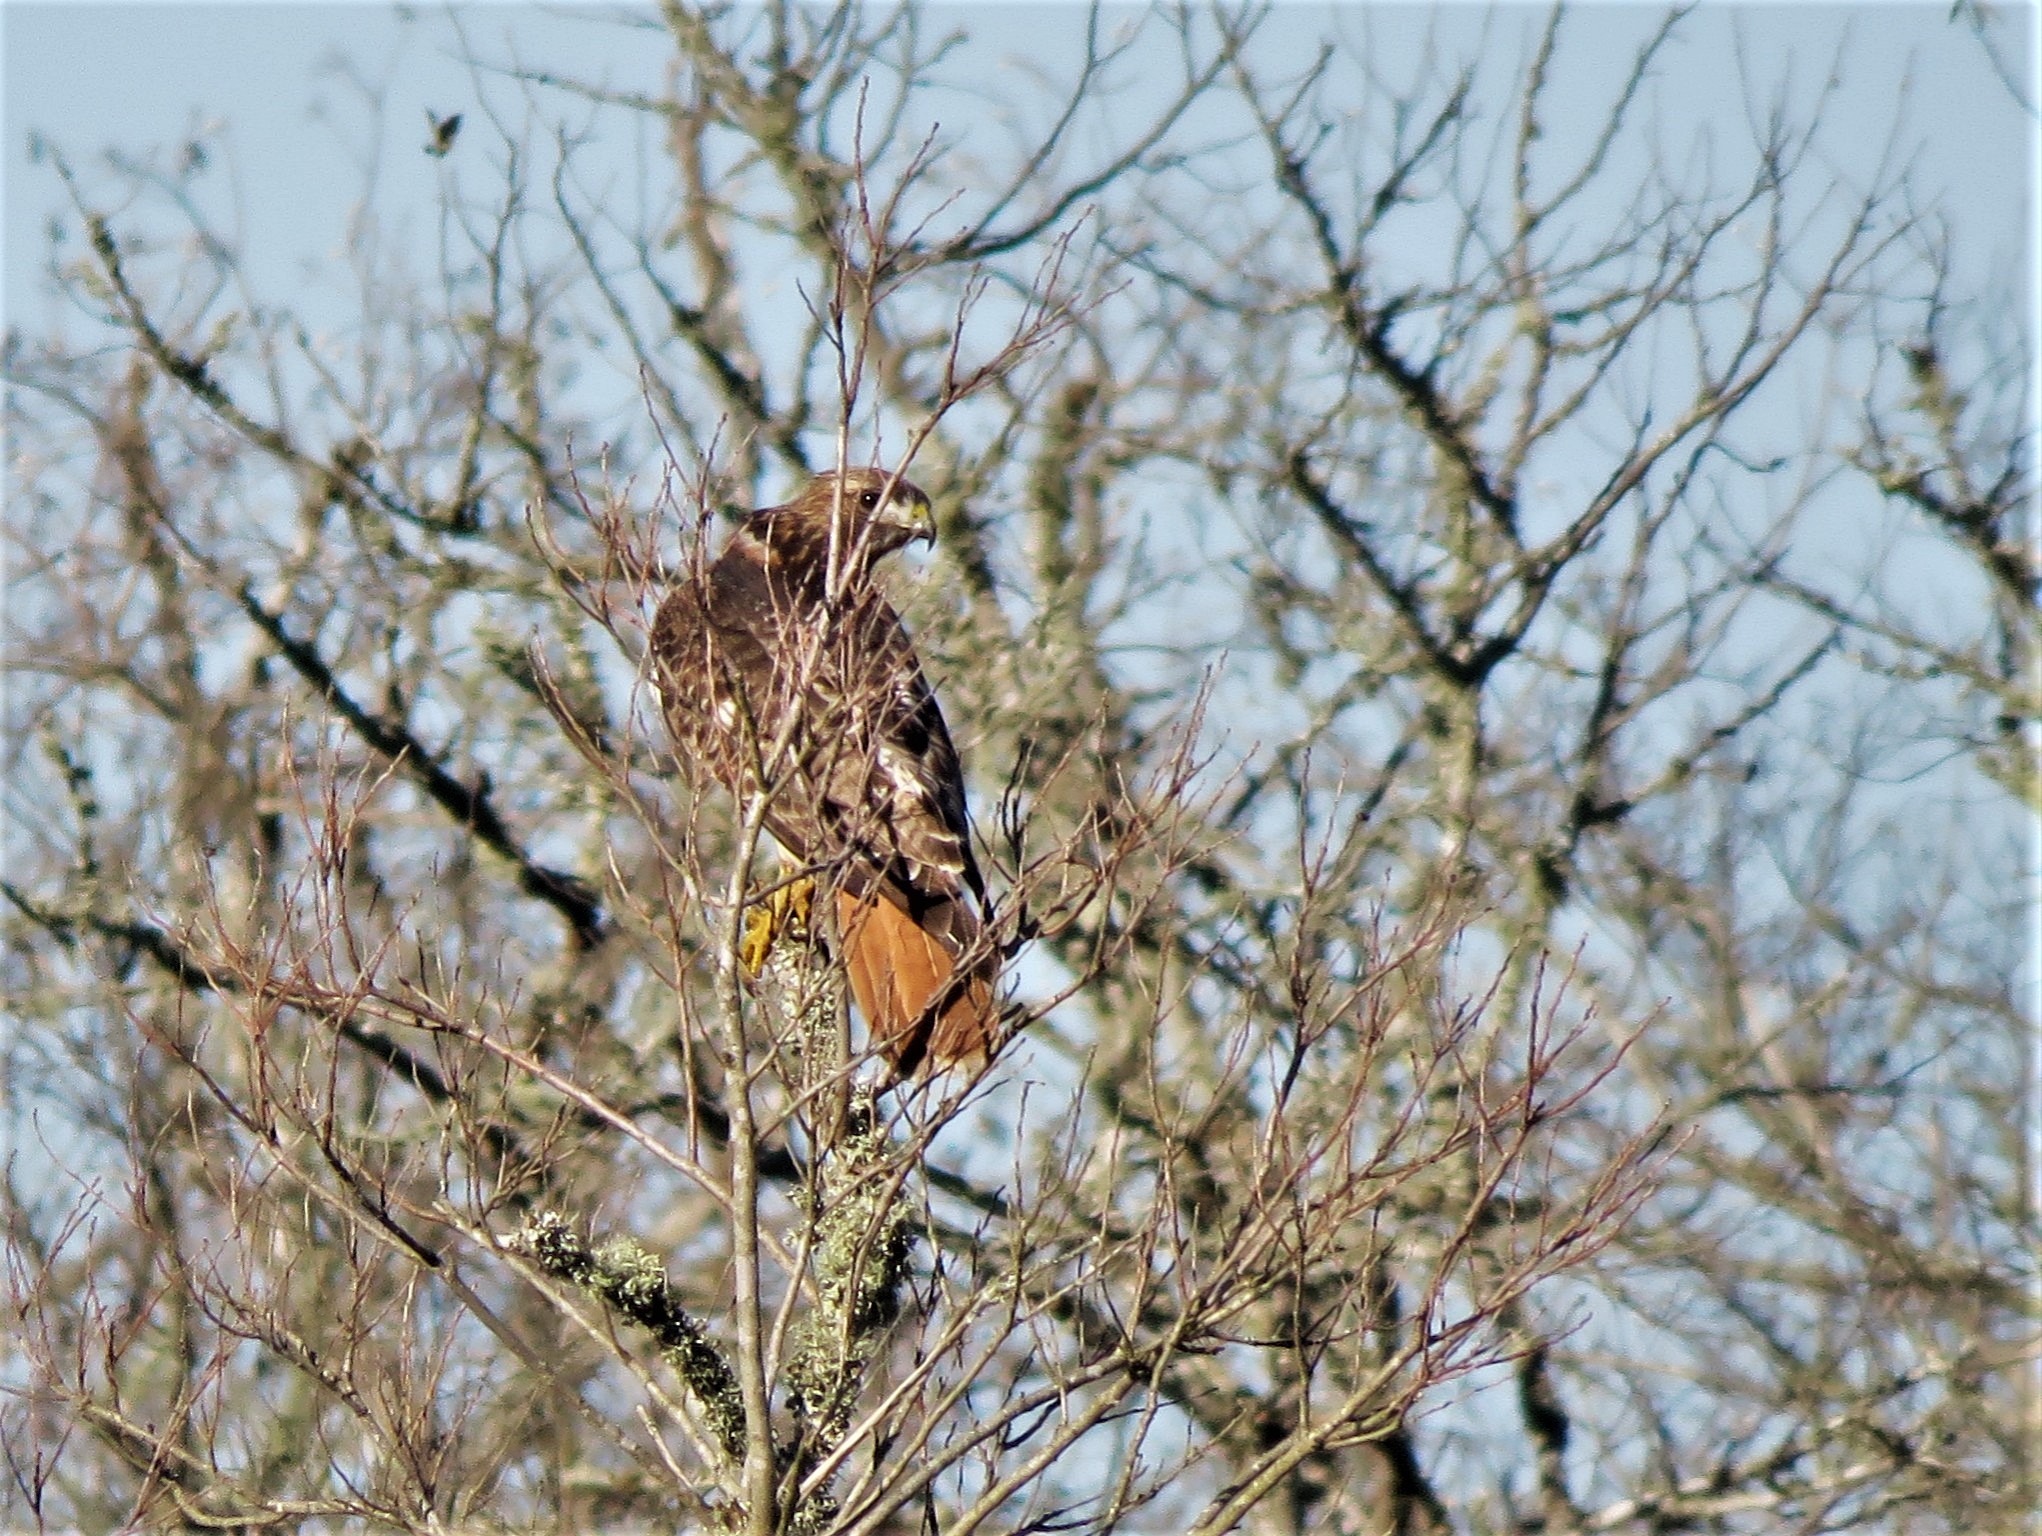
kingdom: Animalia
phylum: Chordata
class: Aves
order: Accipitriformes
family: Accipitridae
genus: Buteo
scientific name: Buteo jamaicensis
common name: Red-tailed hawk
